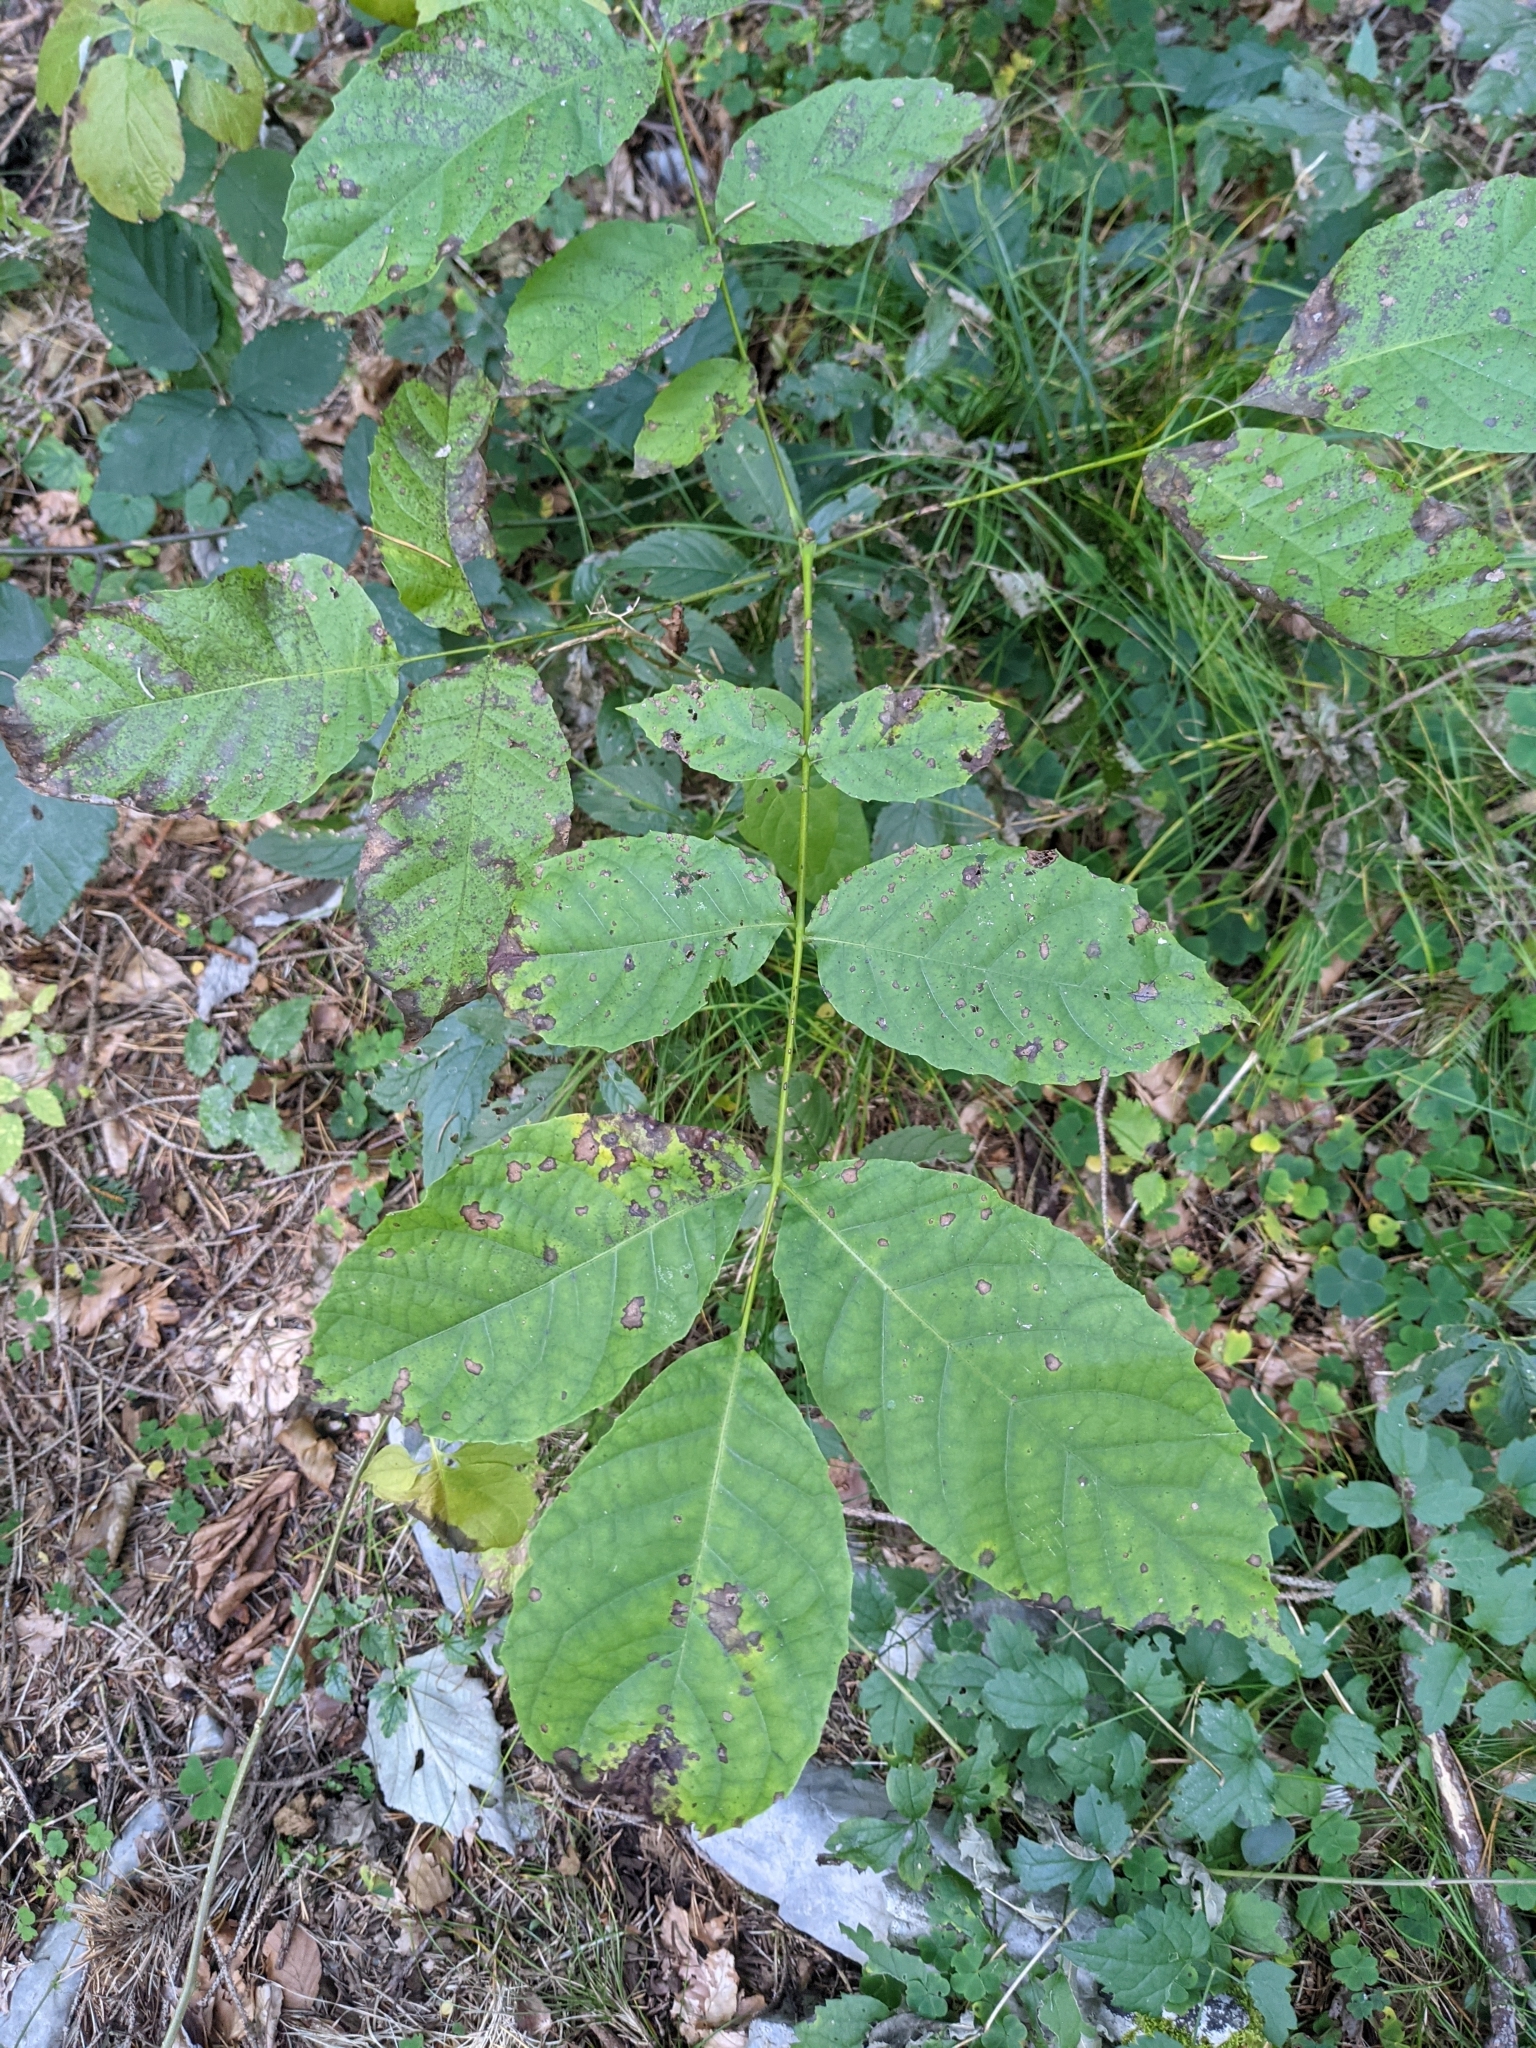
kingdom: Plantae
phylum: Tracheophyta
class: Magnoliopsida
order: Fagales
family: Juglandaceae
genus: Juglans
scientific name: Juglans regia
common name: Walnut
